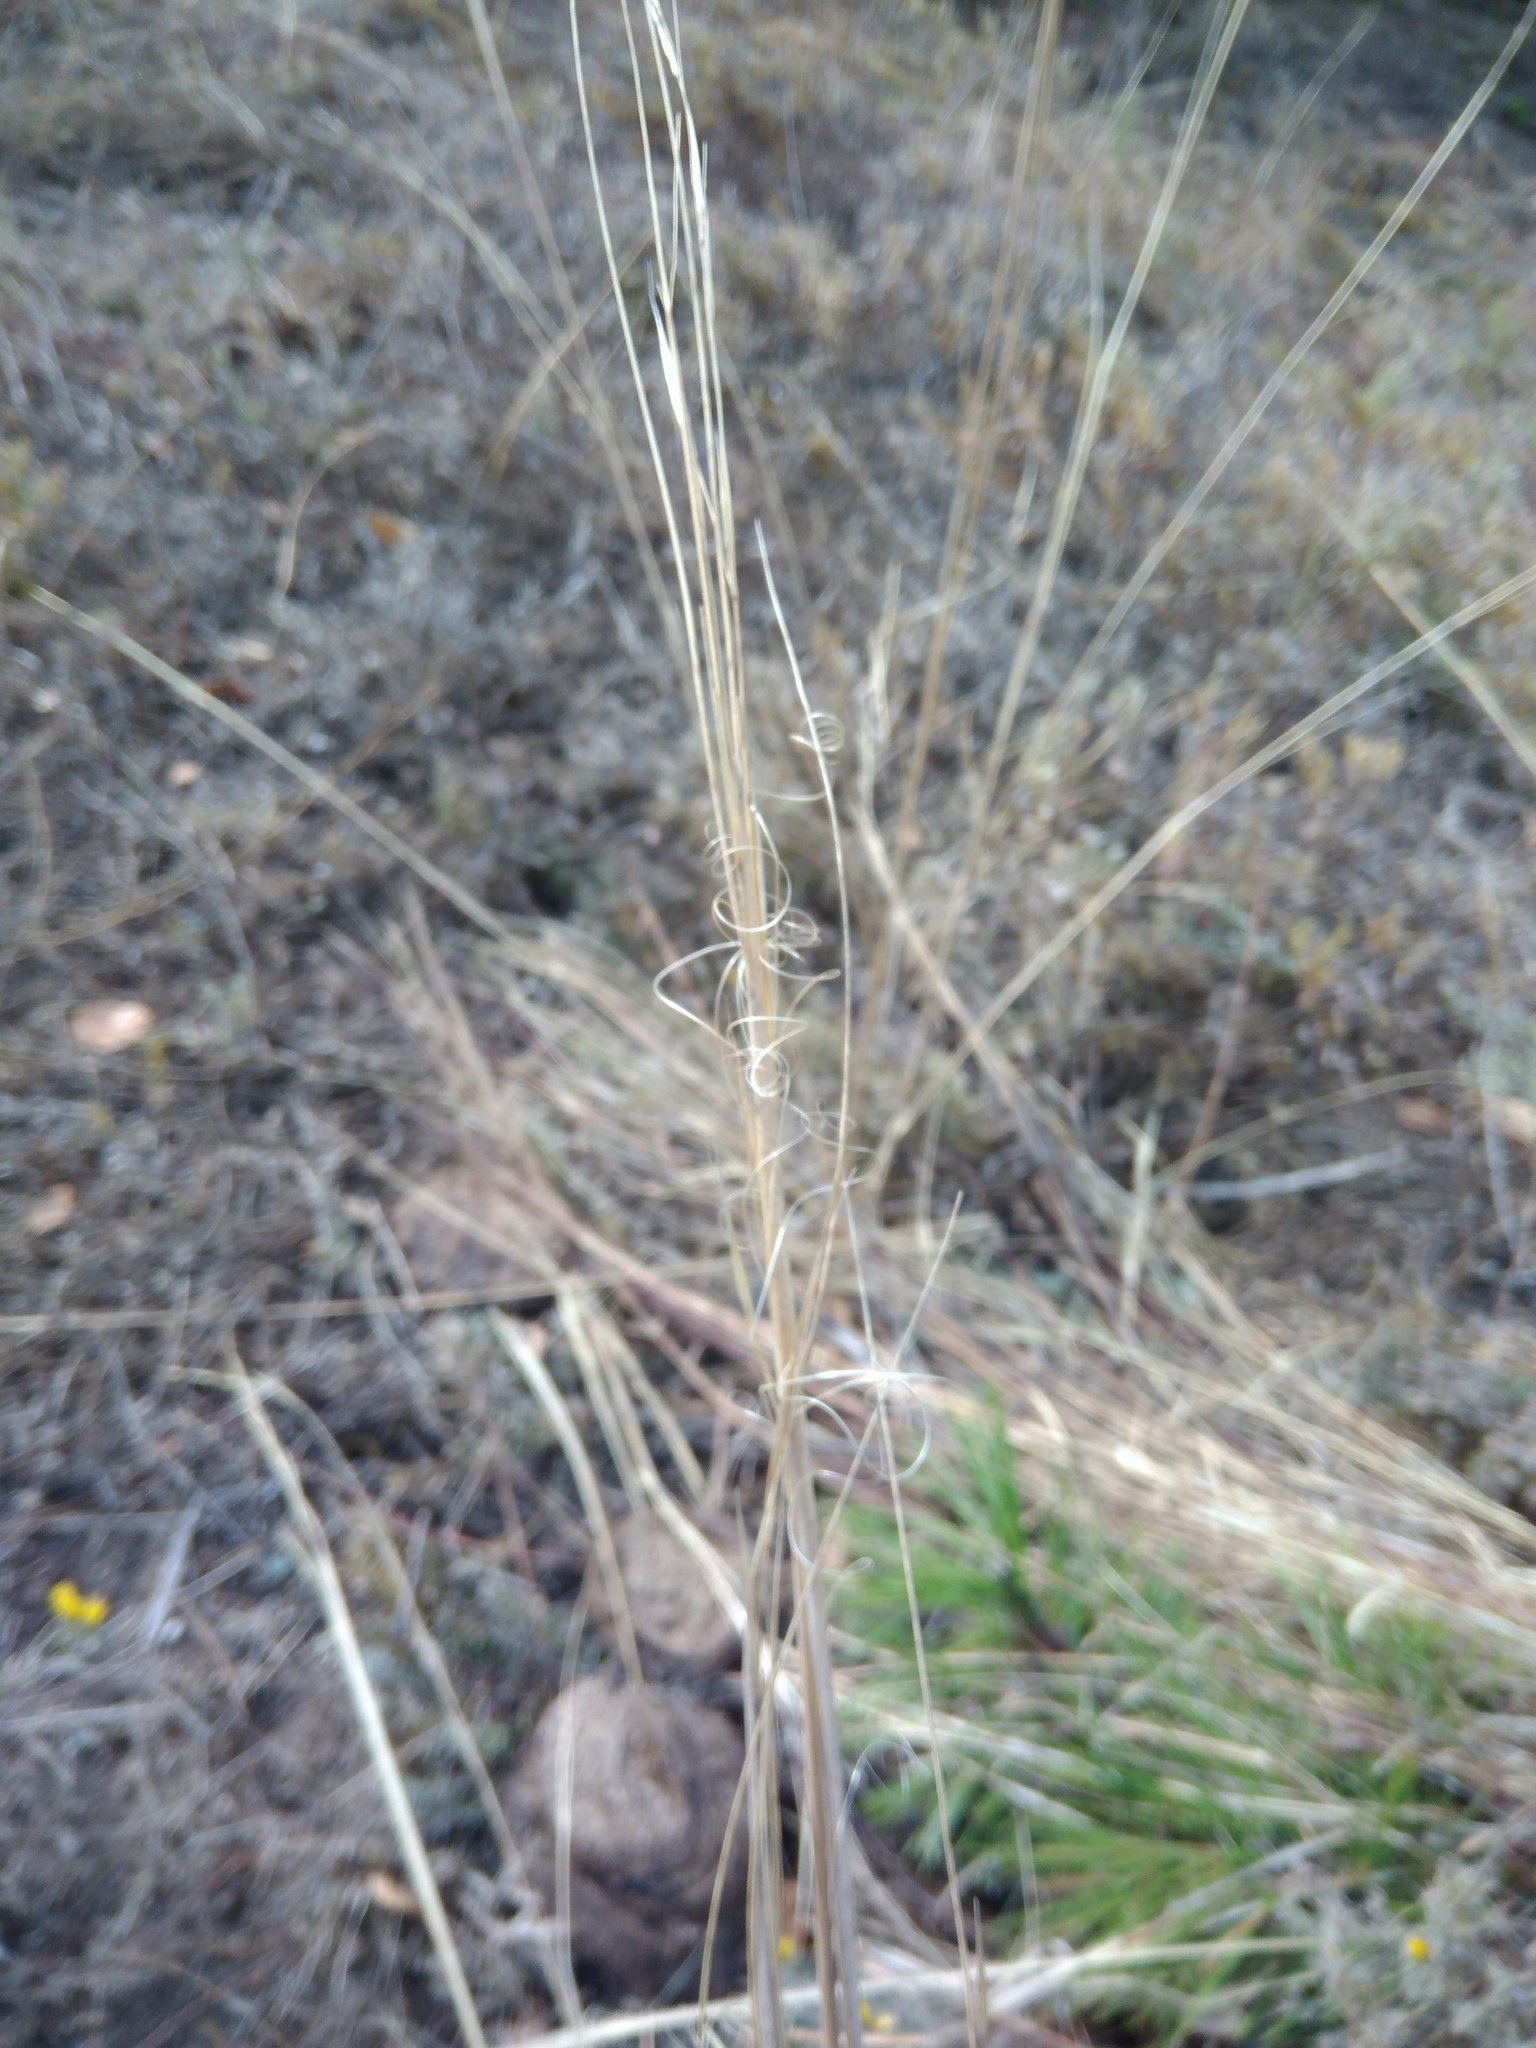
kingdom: Plantae
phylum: Tracheophyta
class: Liliopsida
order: Poales
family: Poaceae
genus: Stipa
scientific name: Stipa capillata
